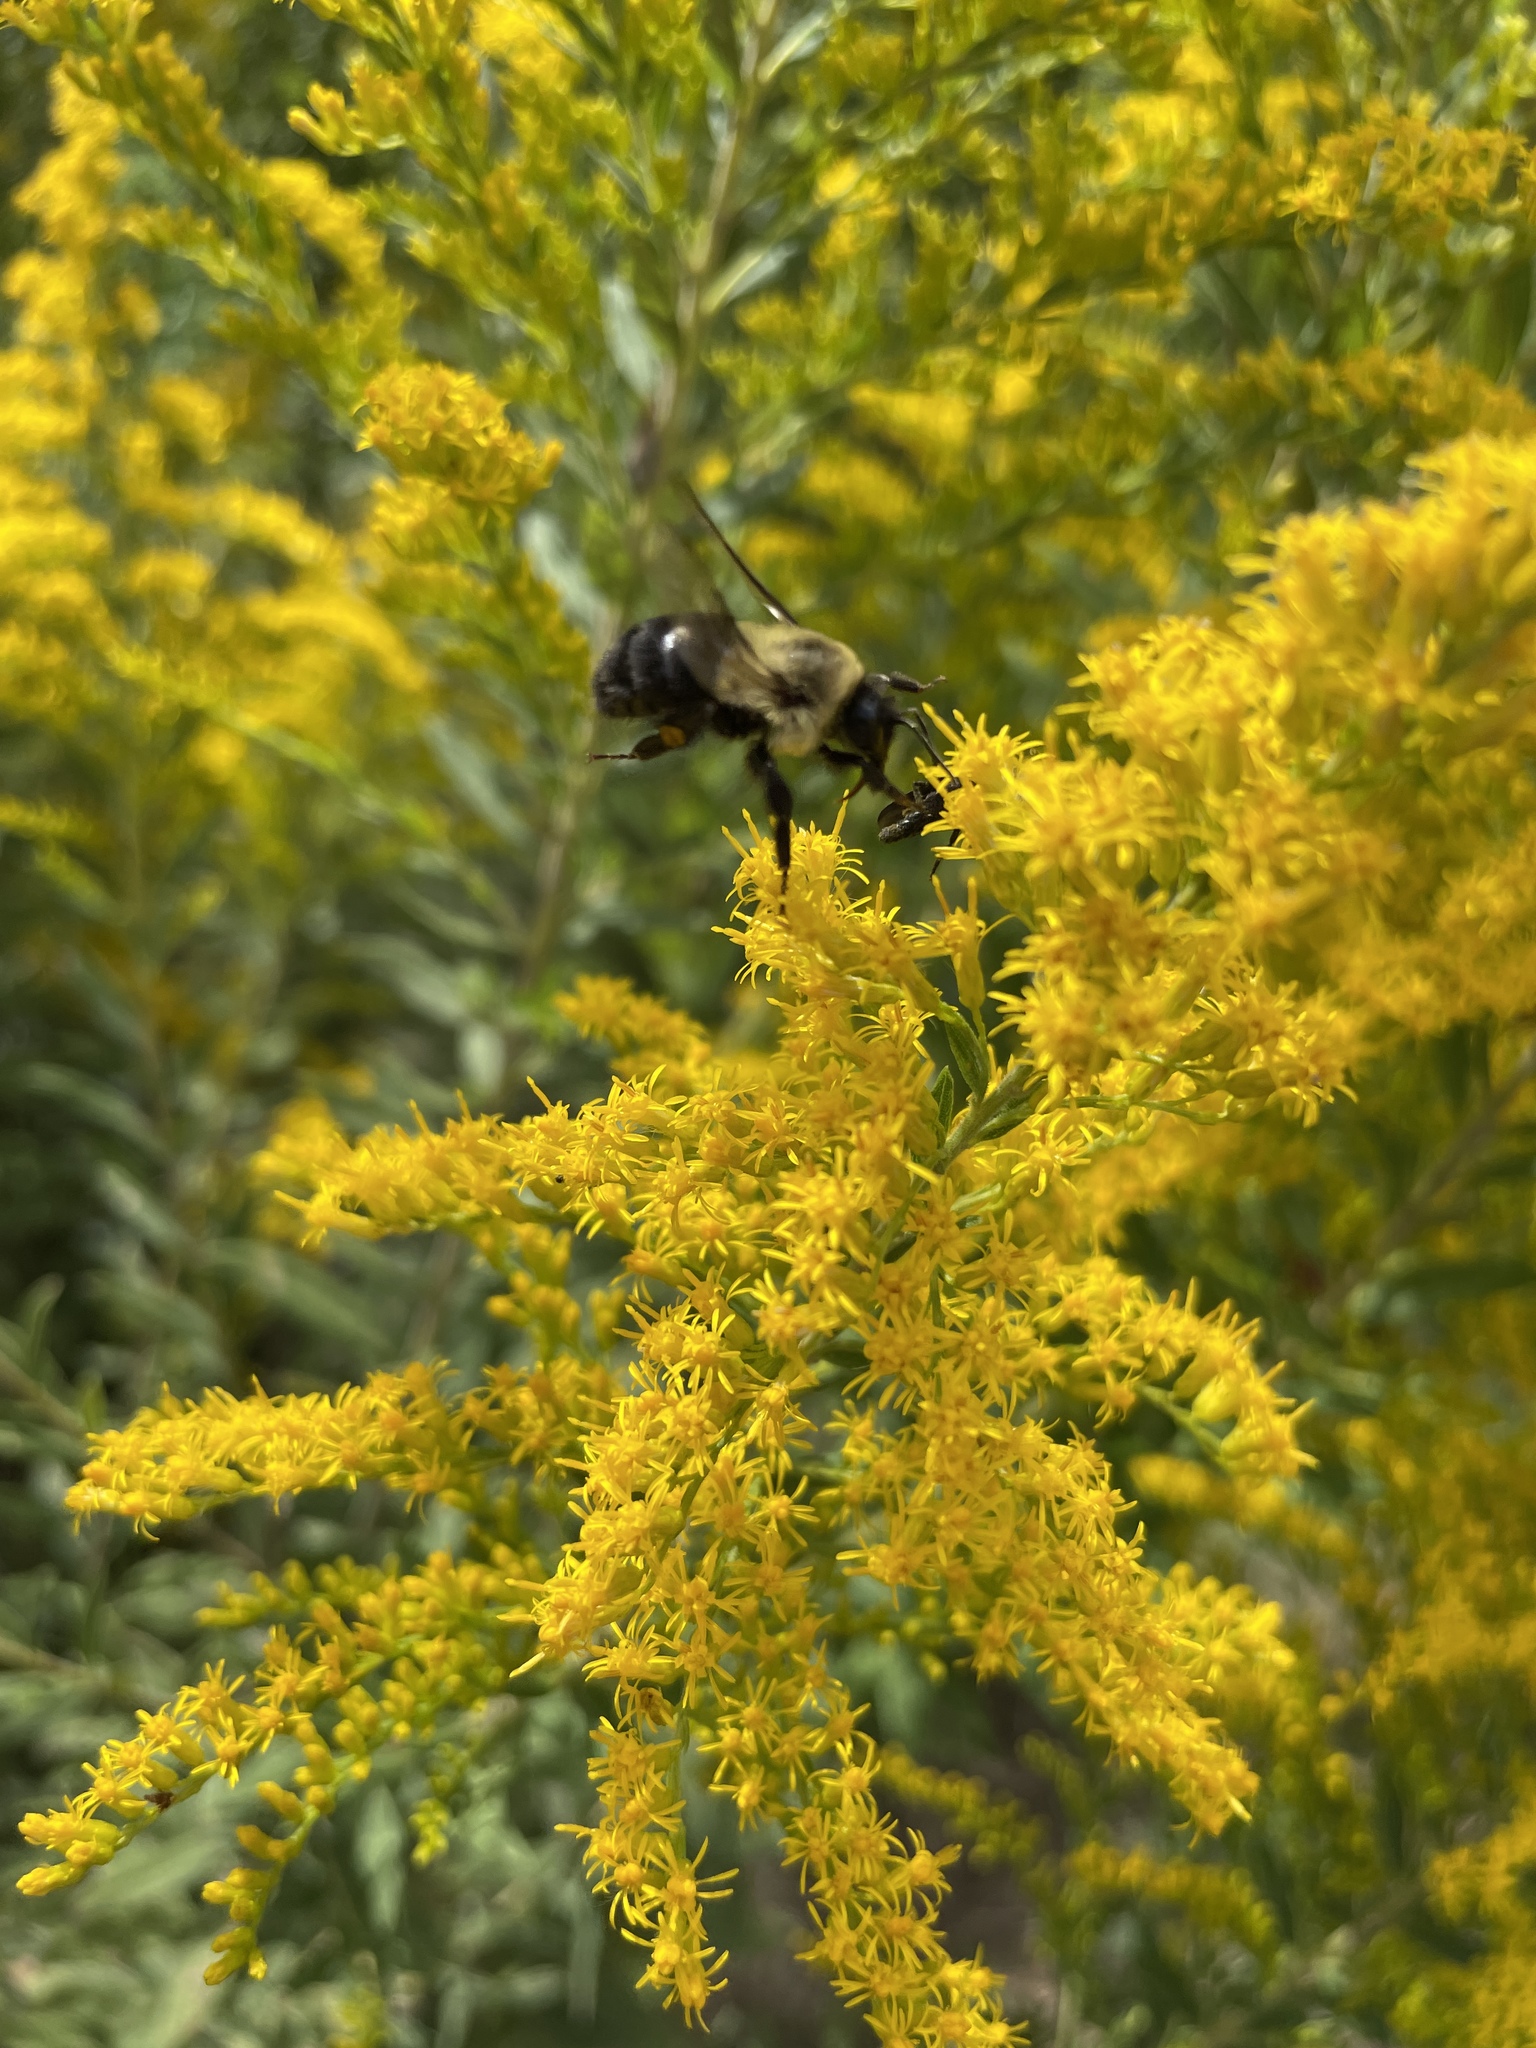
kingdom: Animalia
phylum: Arthropoda
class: Insecta
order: Hymenoptera
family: Apidae
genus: Bombus
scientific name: Bombus impatiens
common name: Common eastern bumble bee
